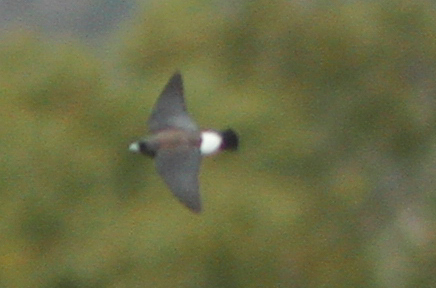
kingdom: Animalia
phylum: Chordata
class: Aves
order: Passeriformes
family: Artamidae
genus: Artamus
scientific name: Artamus leucoryn
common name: White-breasted woodswallow
